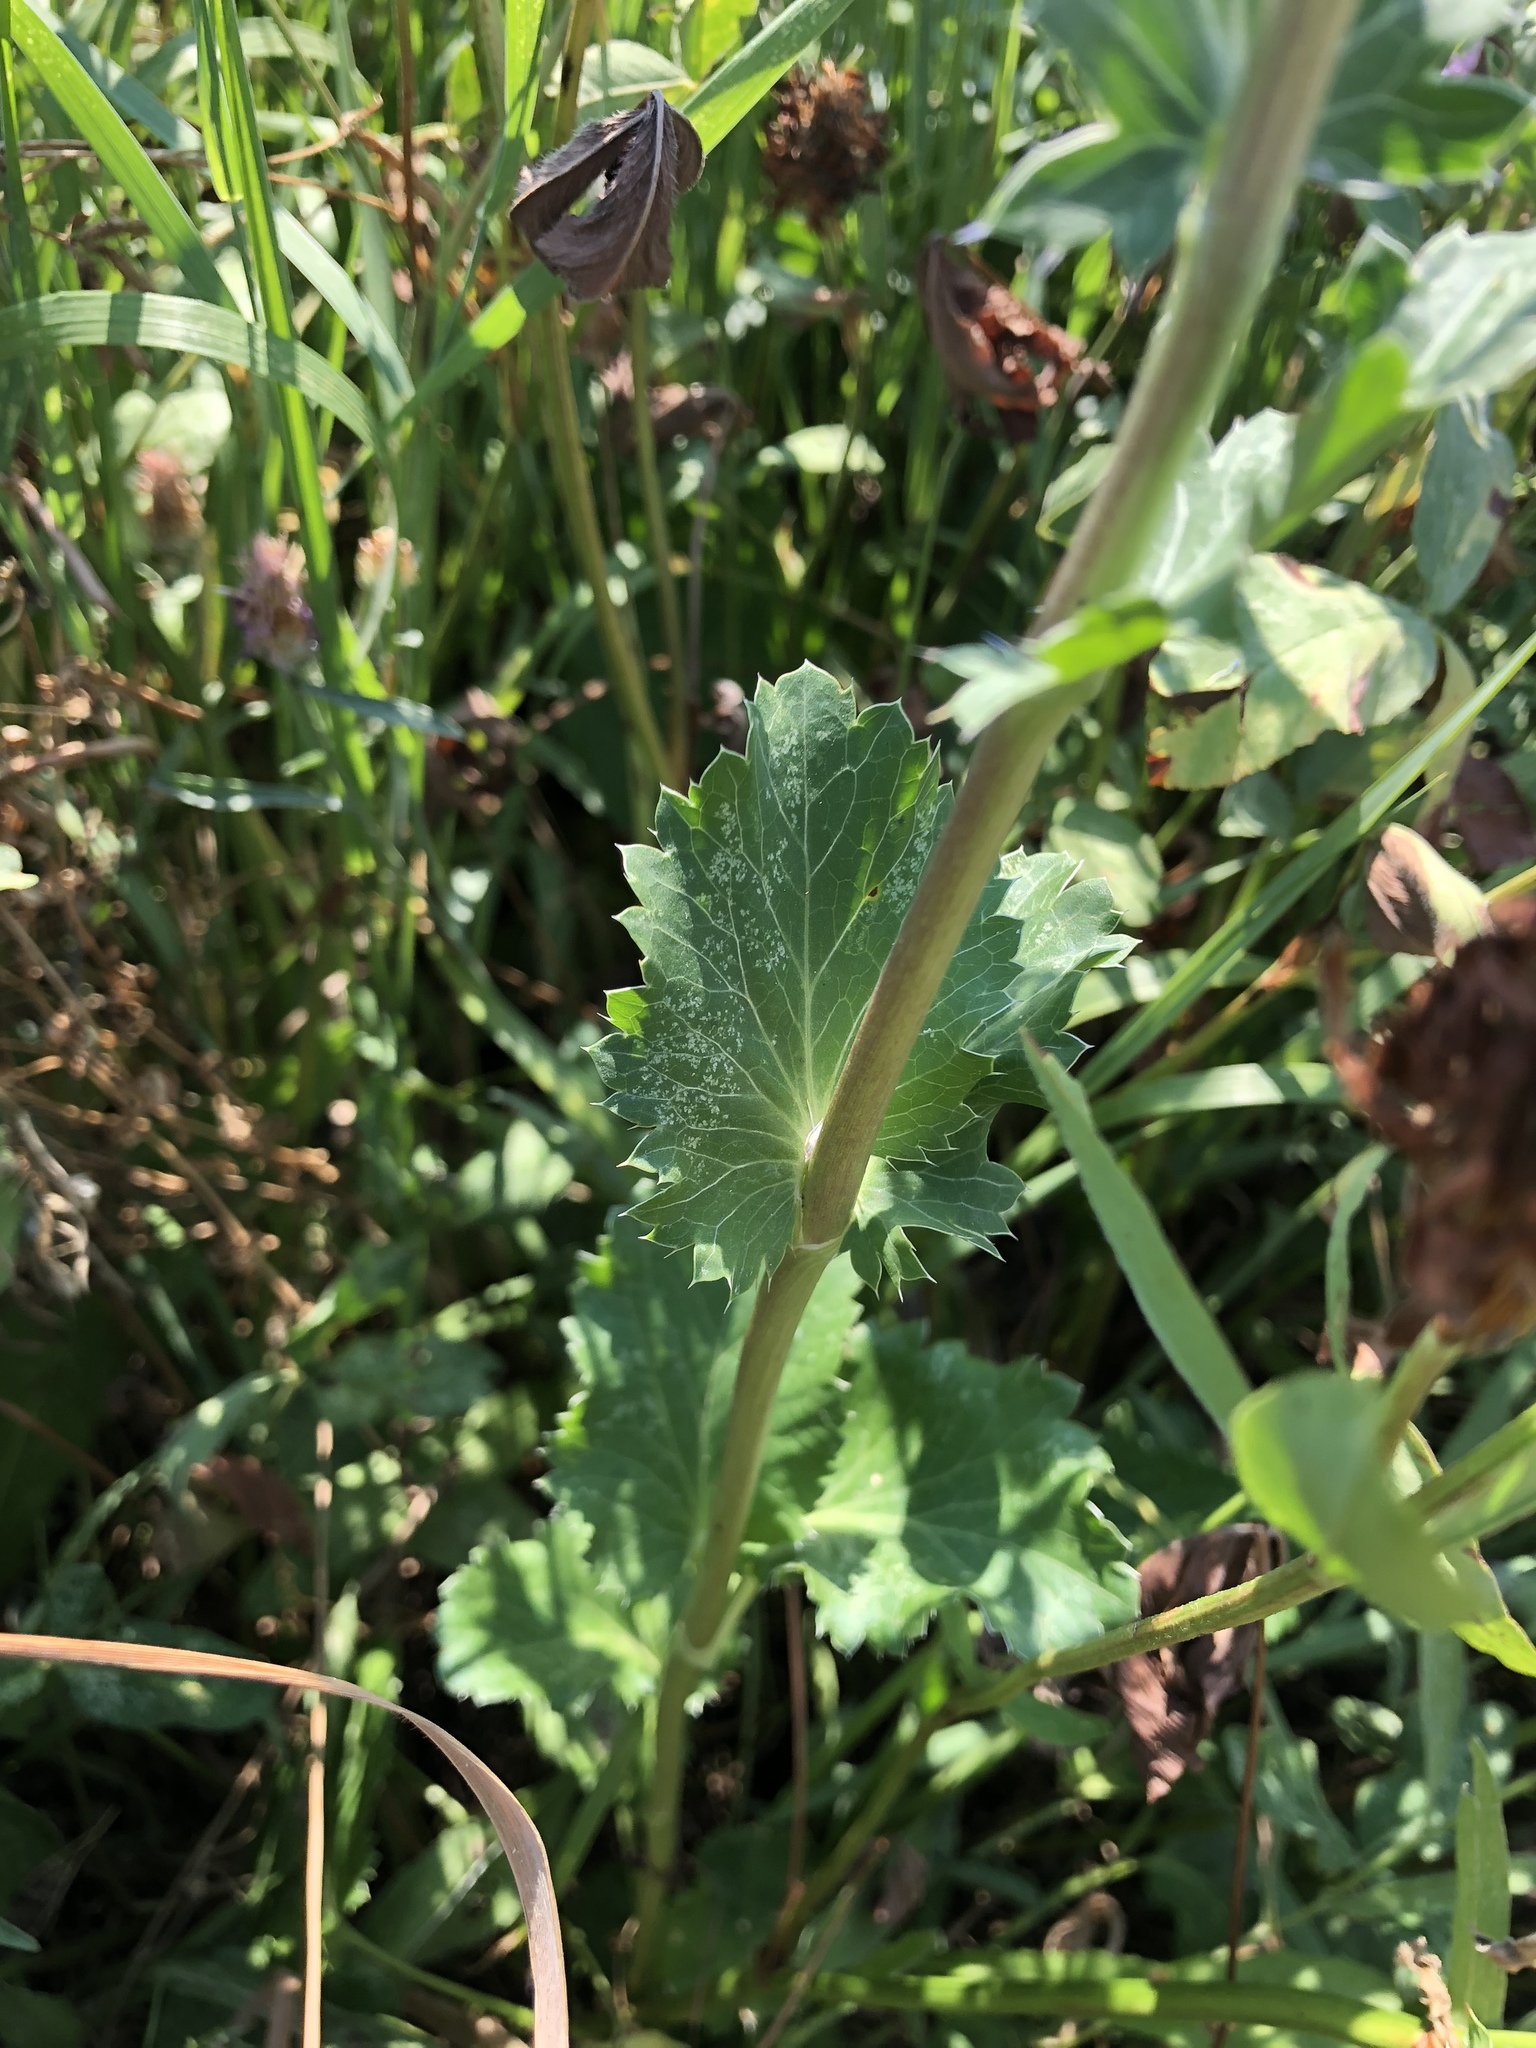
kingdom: Plantae
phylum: Tracheophyta
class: Magnoliopsida
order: Apiales
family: Apiaceae
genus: Eryngium
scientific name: Eryngium planum
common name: Blue eryngo
